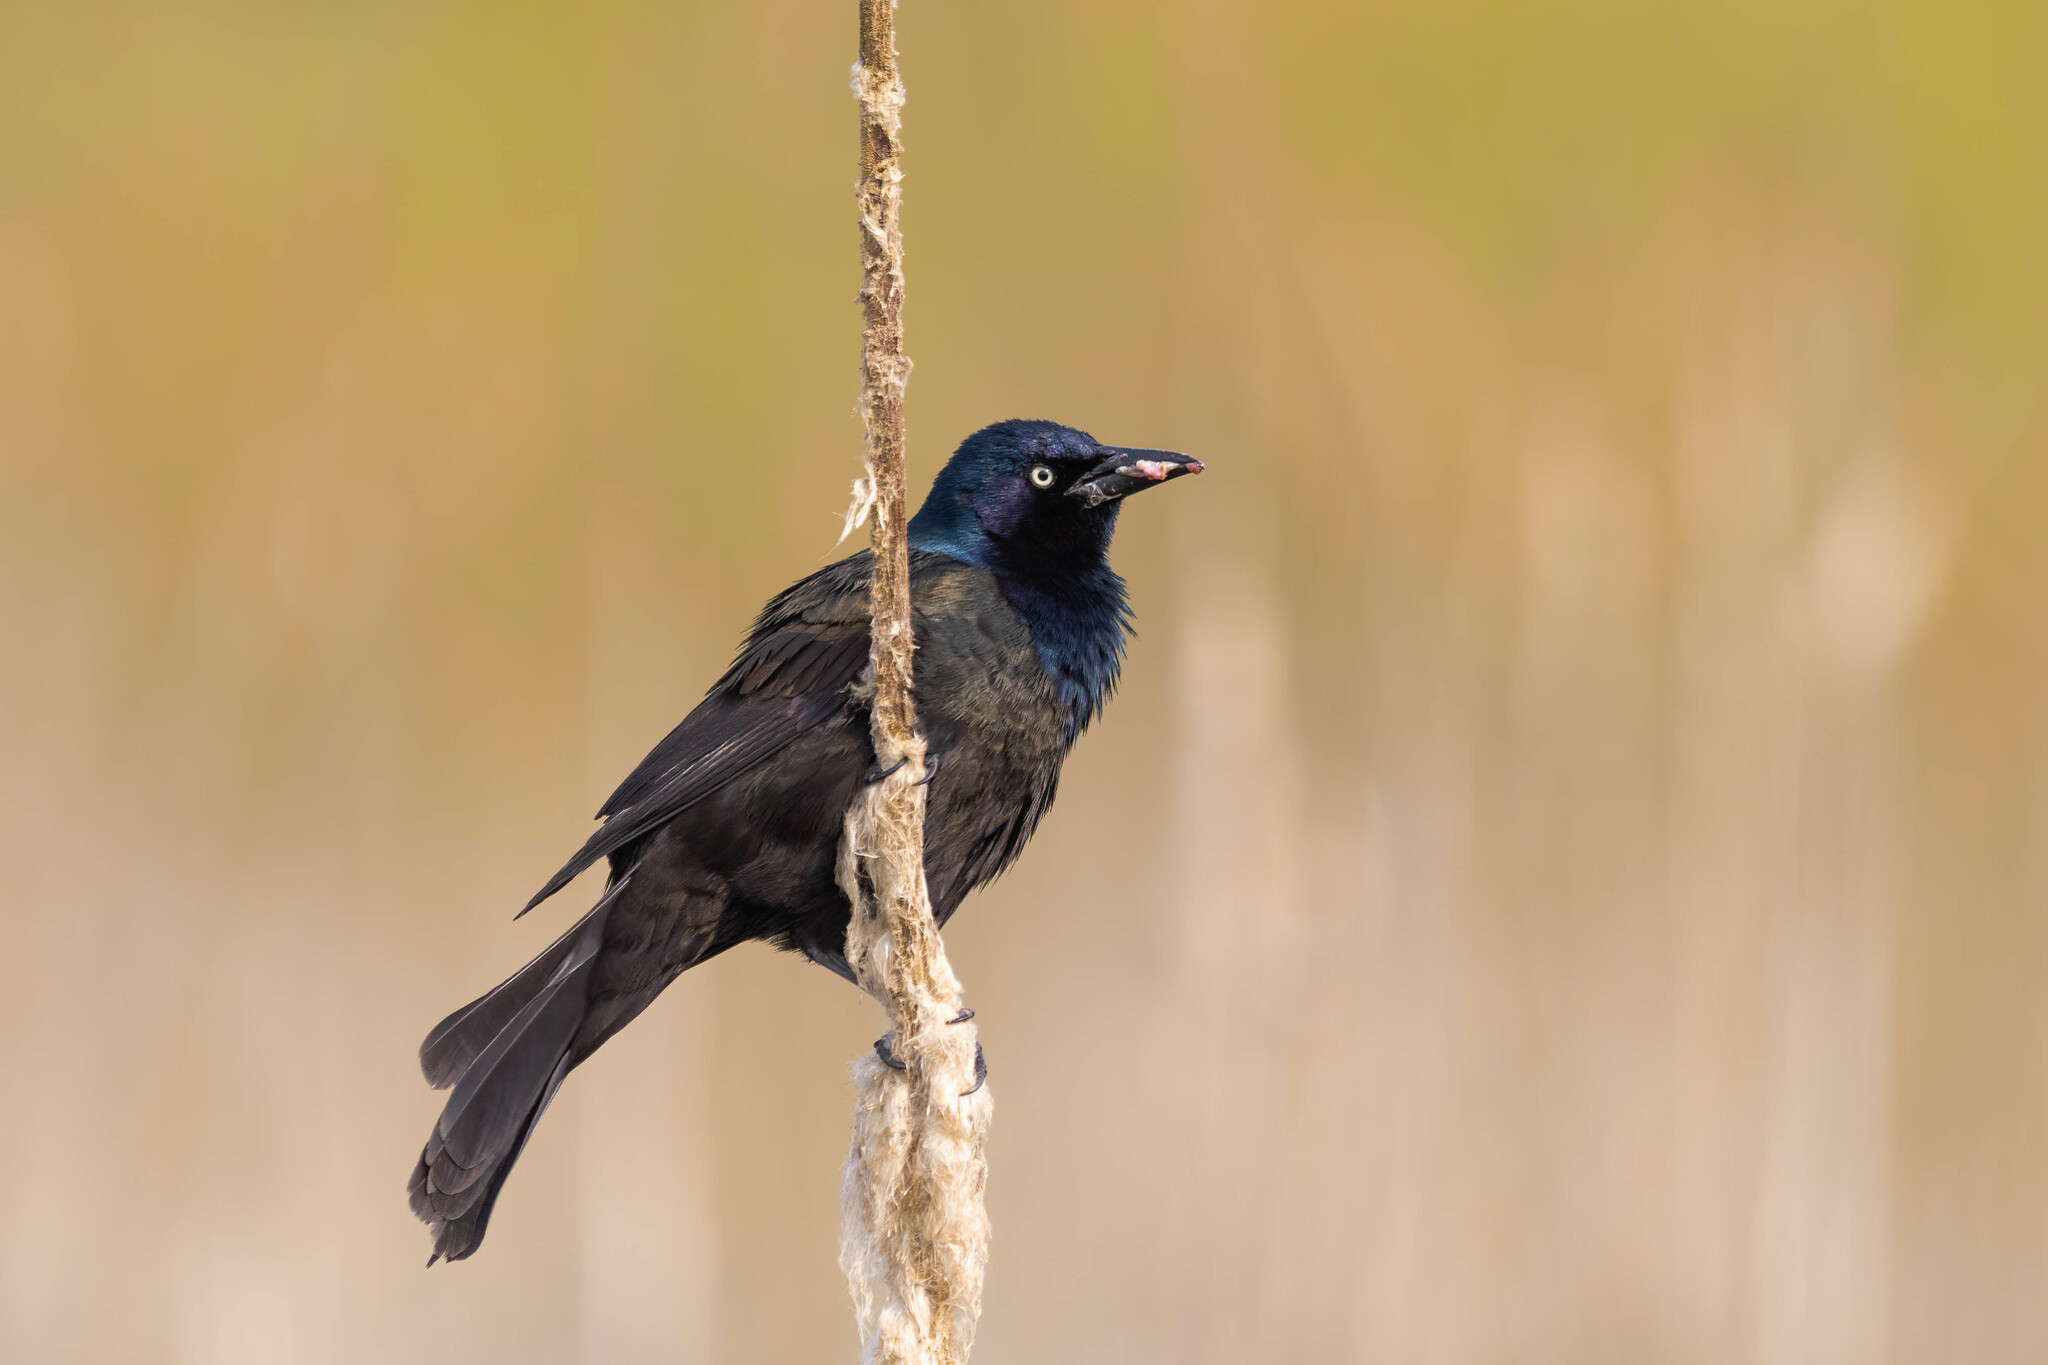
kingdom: Animalia
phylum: Chordata
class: Aves
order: Passeriformes
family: Icteridae
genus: Quiscalus
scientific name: Quiscalus quiscula
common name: Common grackle
